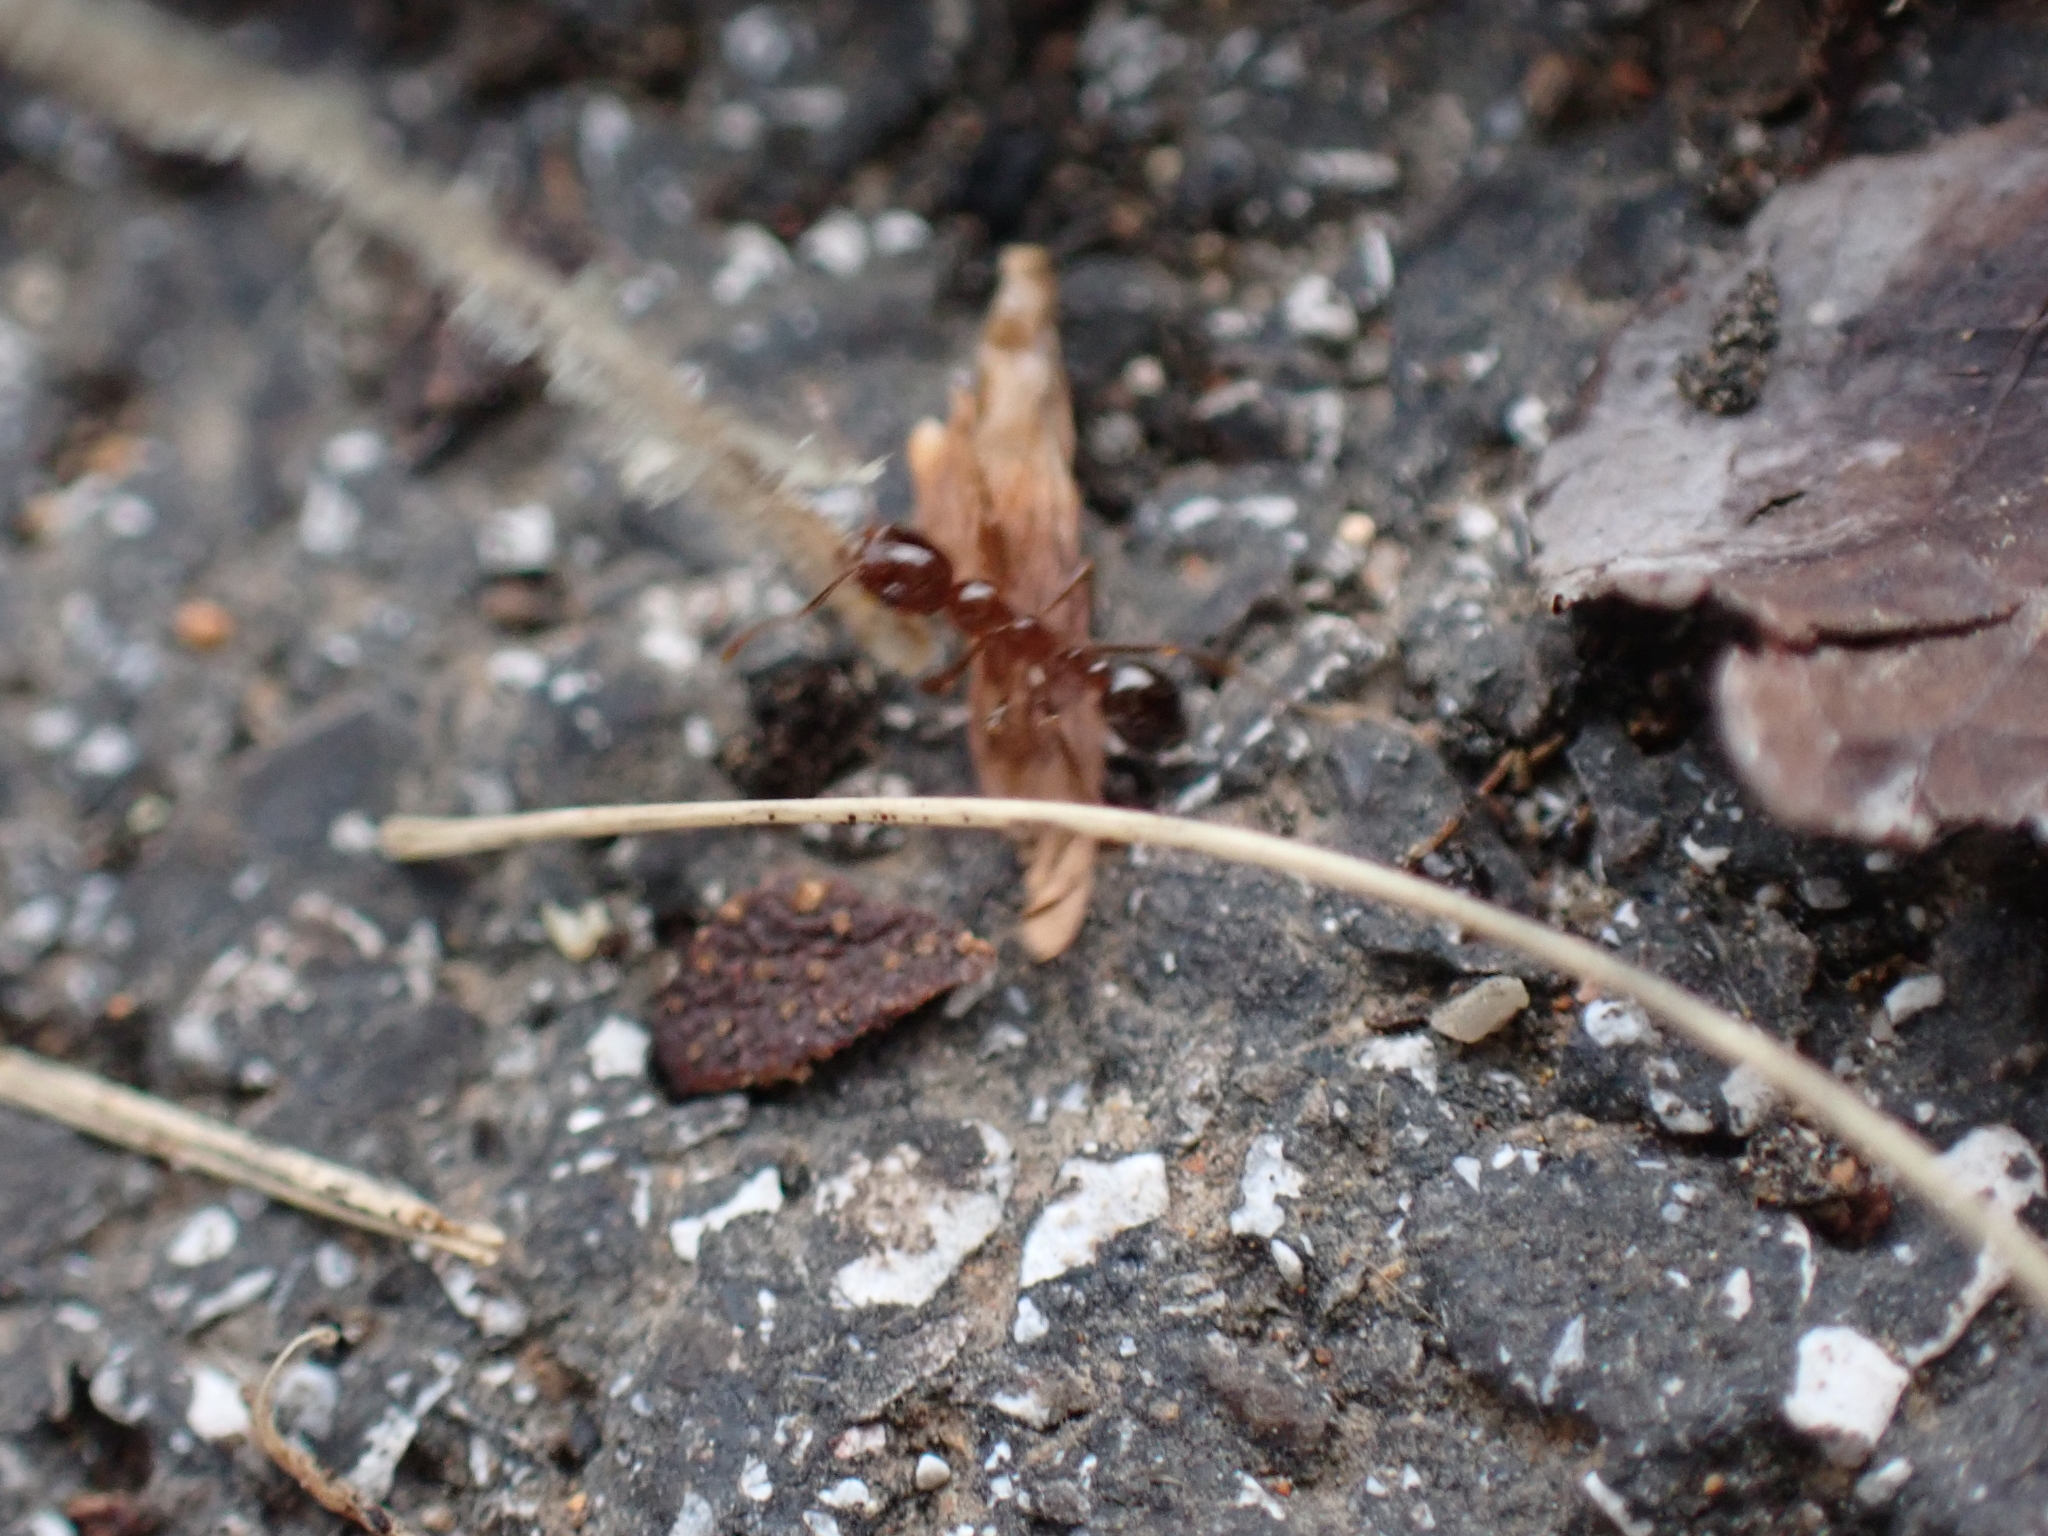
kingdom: Animalia
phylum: Arthropoda
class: Insecta
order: Hymenoptera
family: Formicidae
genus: Solenopsis
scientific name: Solenopsis
